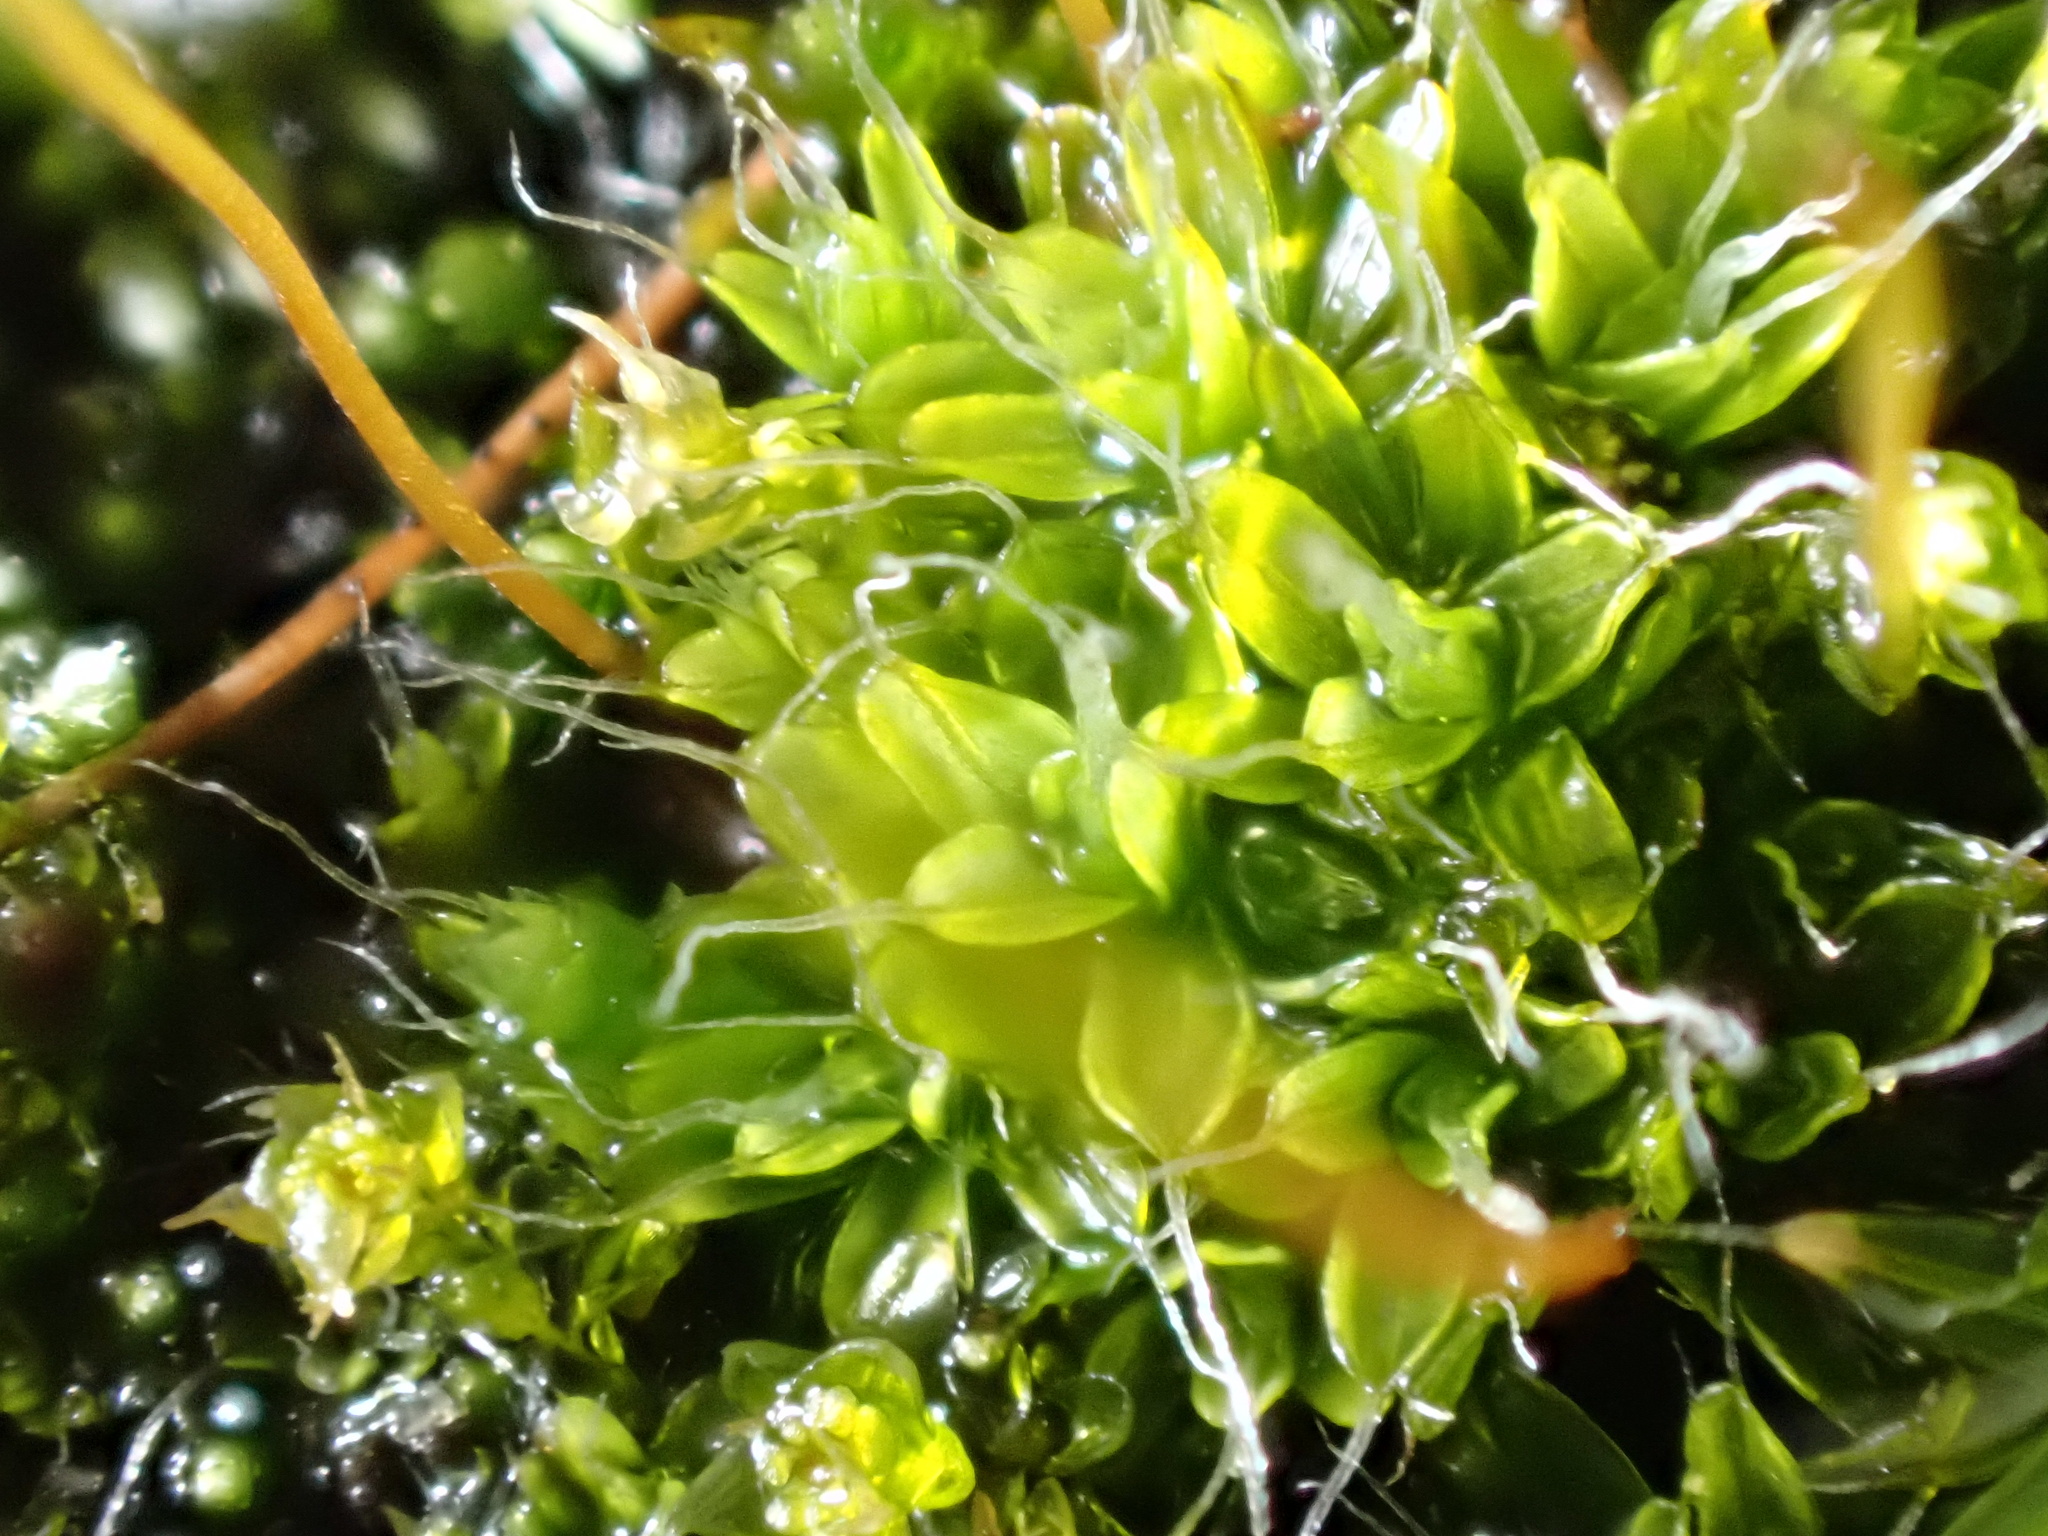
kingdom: Plantae
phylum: Bryophyta
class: Bryopsida
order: Pottiales
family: Pottiaceae
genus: Tortula
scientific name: Tortula muralis
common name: Wall screw-moss
